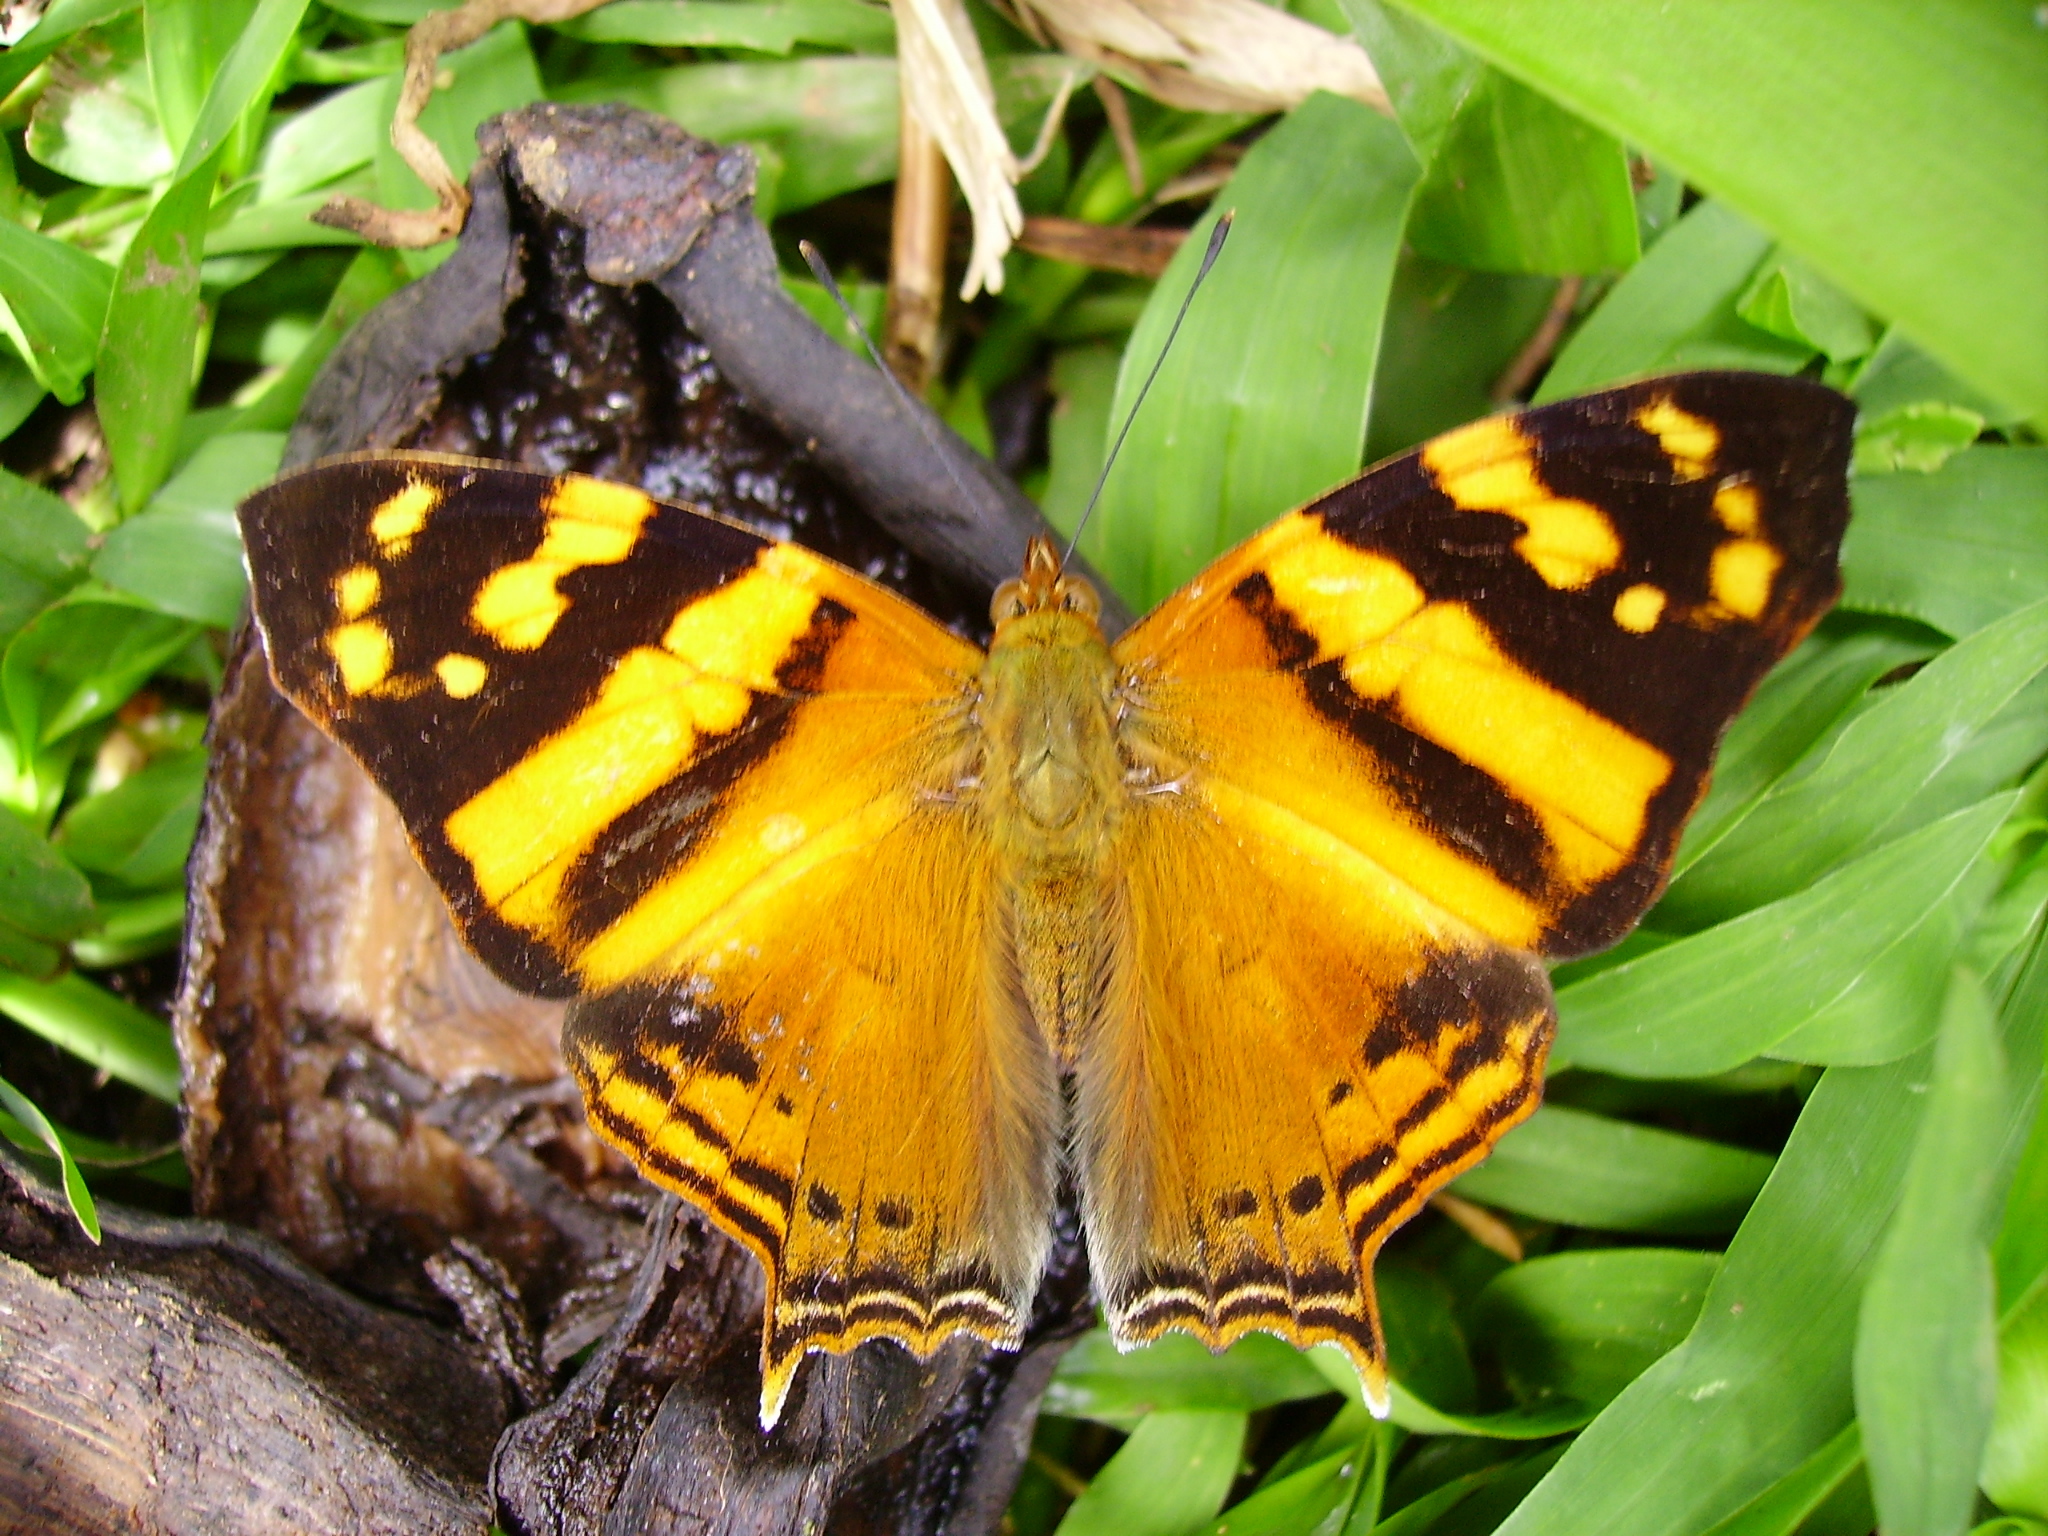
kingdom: Animalia
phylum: Arthropoda
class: Insecta
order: Lepidoptera
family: Nymphalidae
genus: Hypanartia
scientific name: Hypanartia lethe
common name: Orange mapwing
